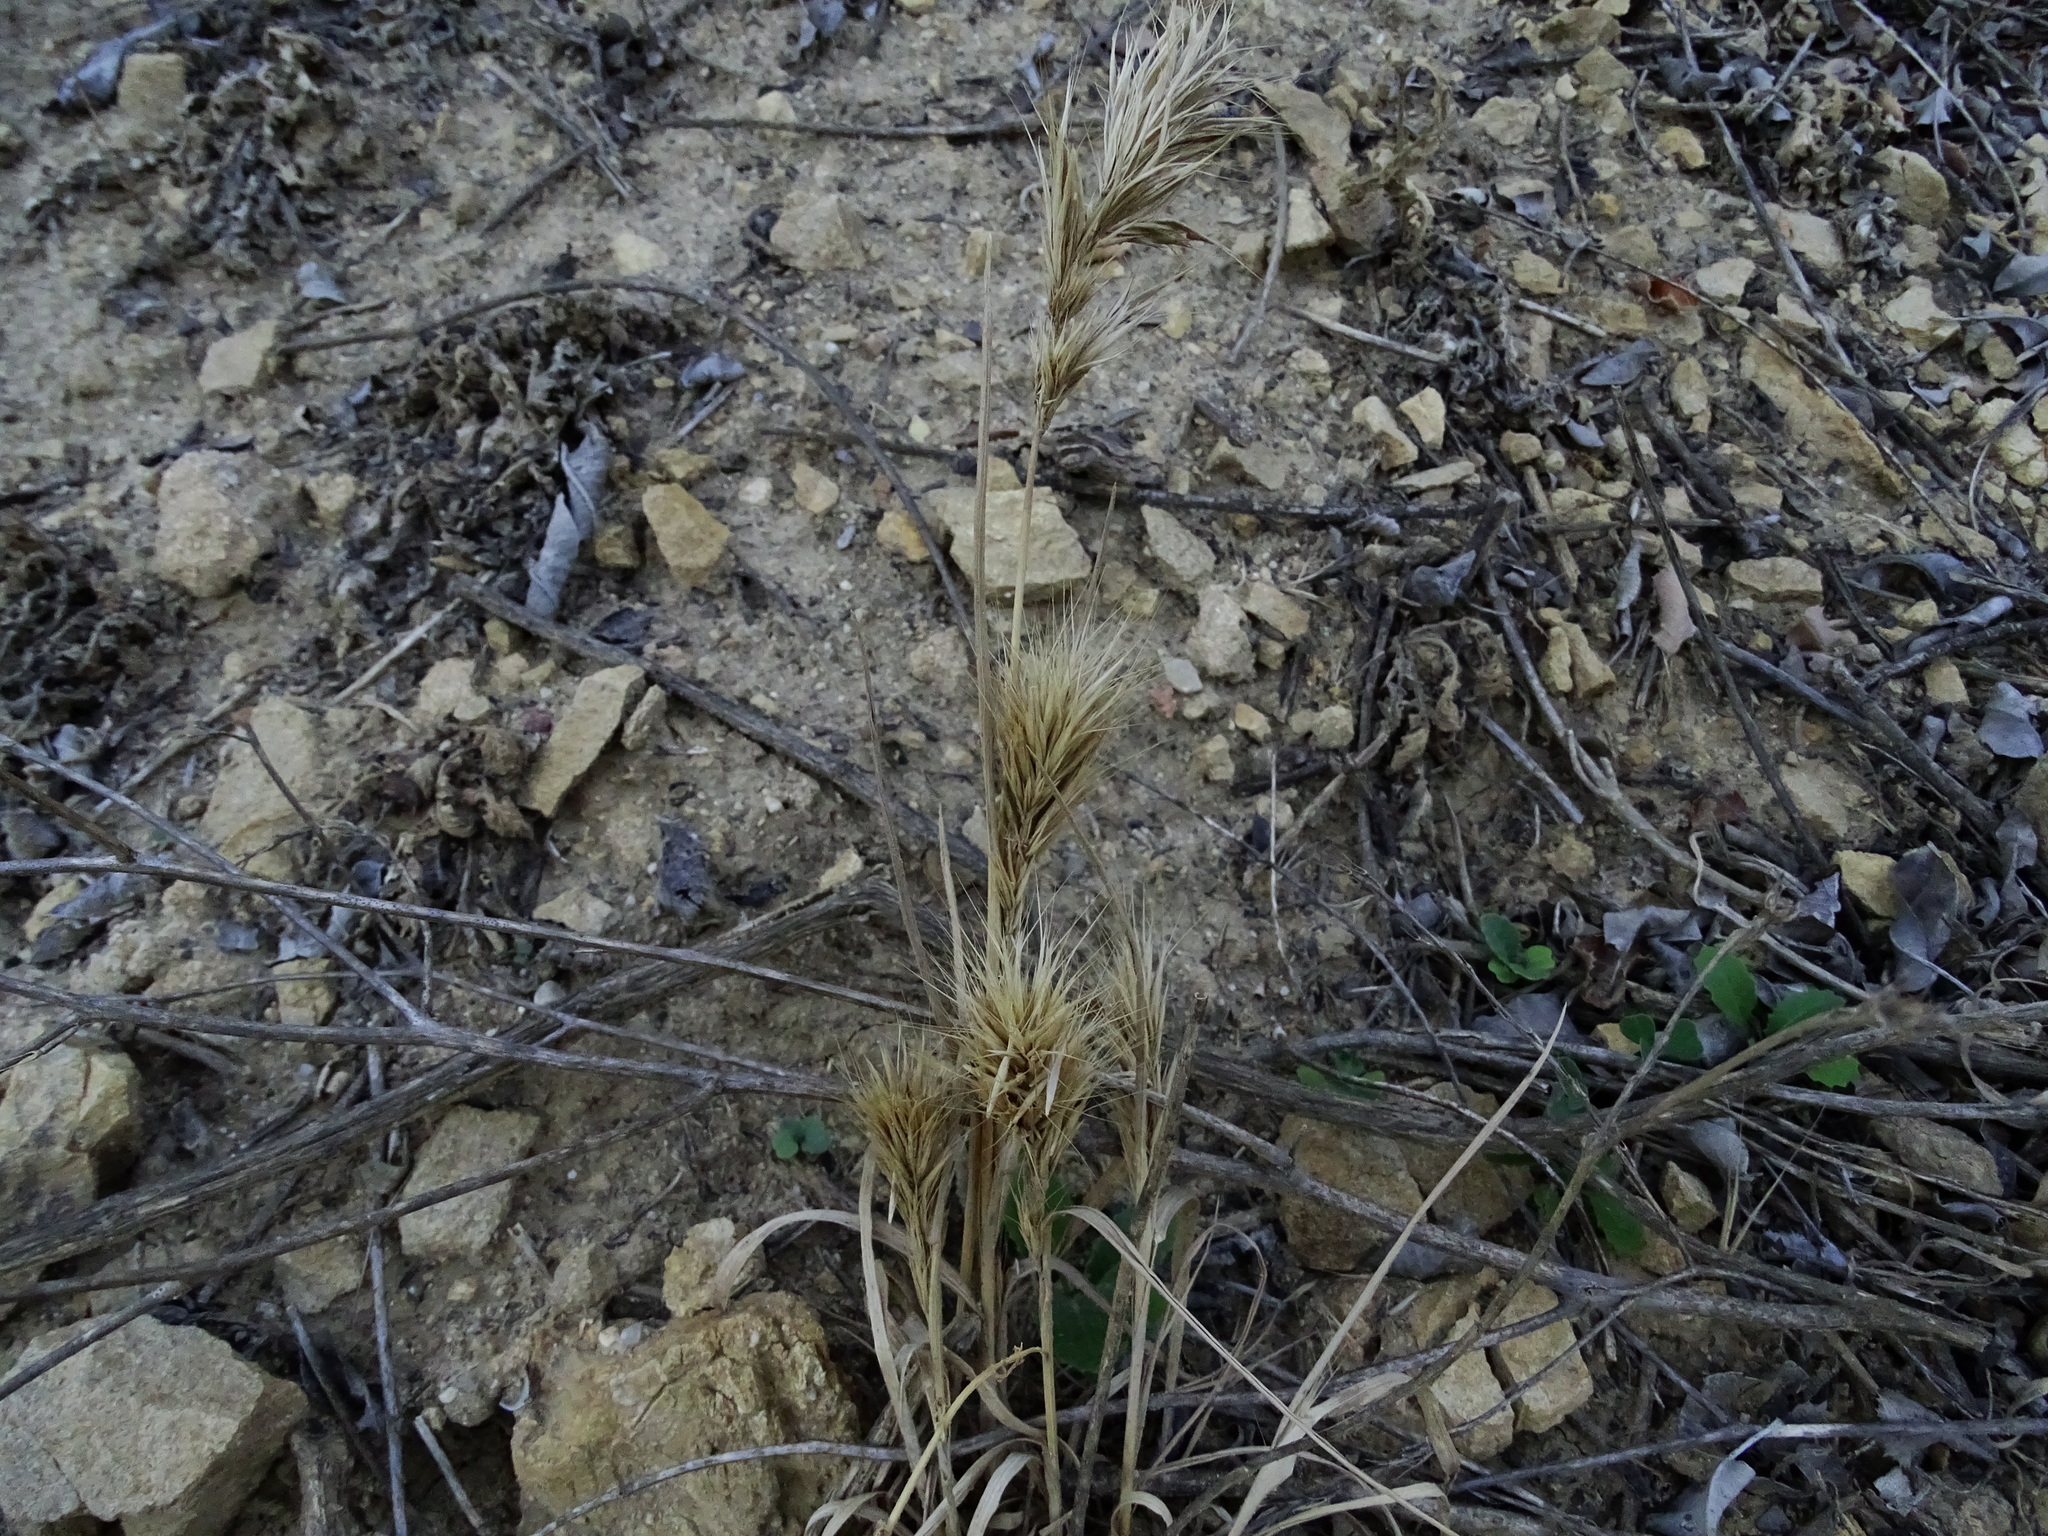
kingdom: Plantae
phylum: Tracheophyta
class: Liliopsida
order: Poales
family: Poaceae
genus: Bromus
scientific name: Bromus madritensis
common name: Compact brome
